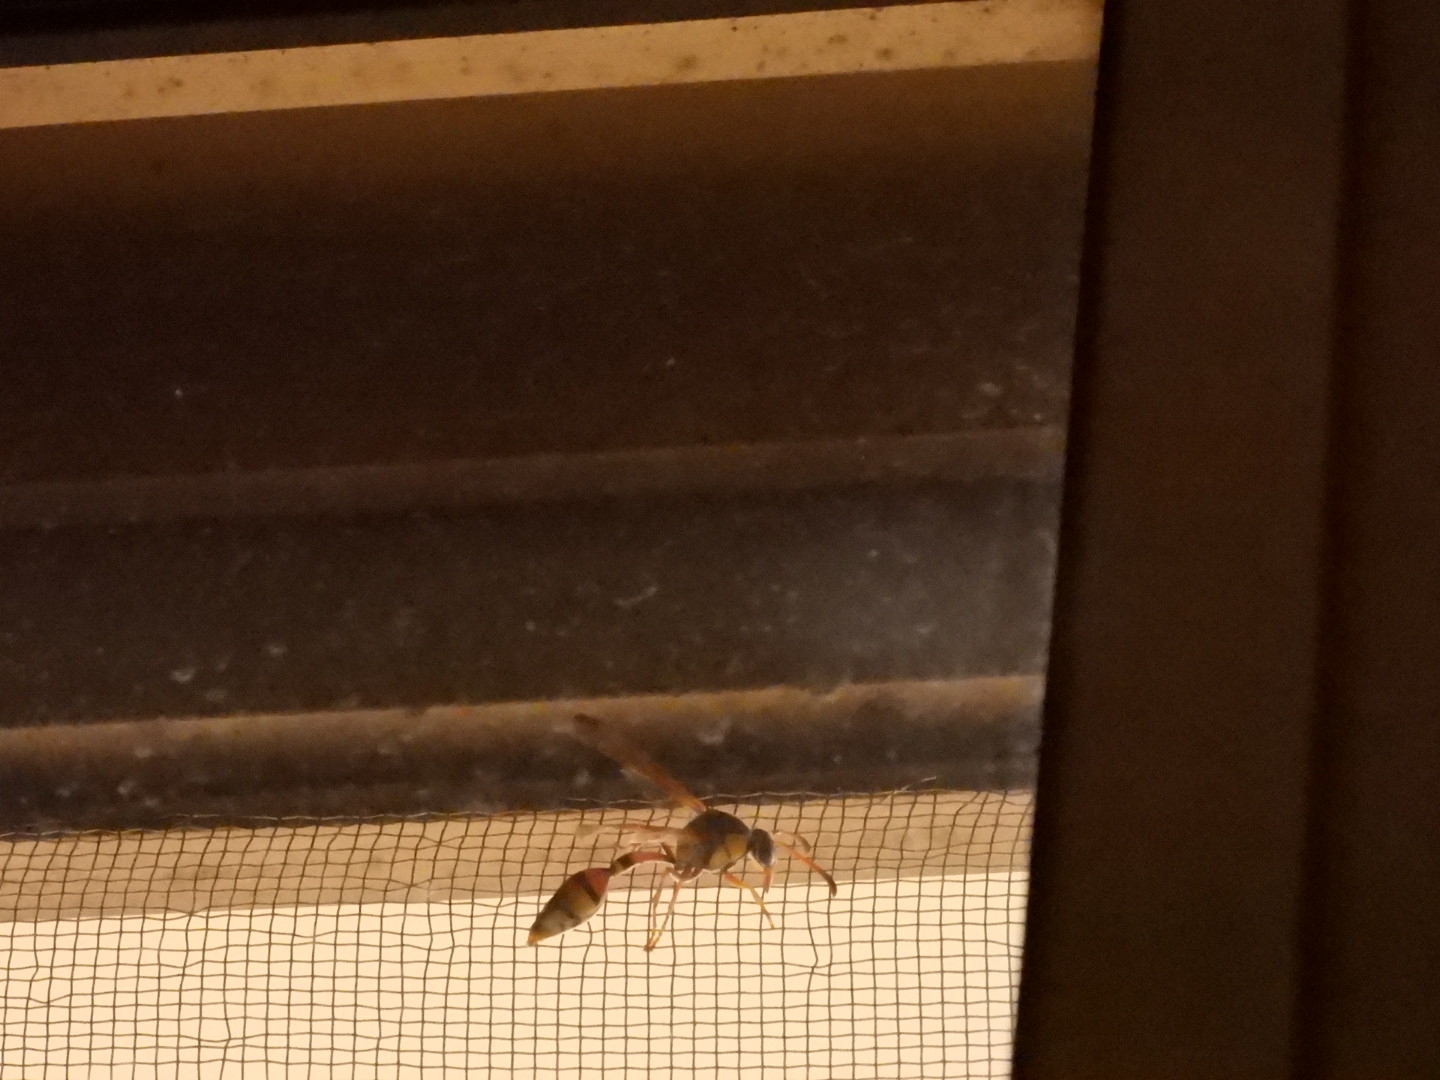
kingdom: Animalia
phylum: Arthropoda
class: Insecta
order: Hymenoptera
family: Eumenidae
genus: Delta
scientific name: Delta esuriens
